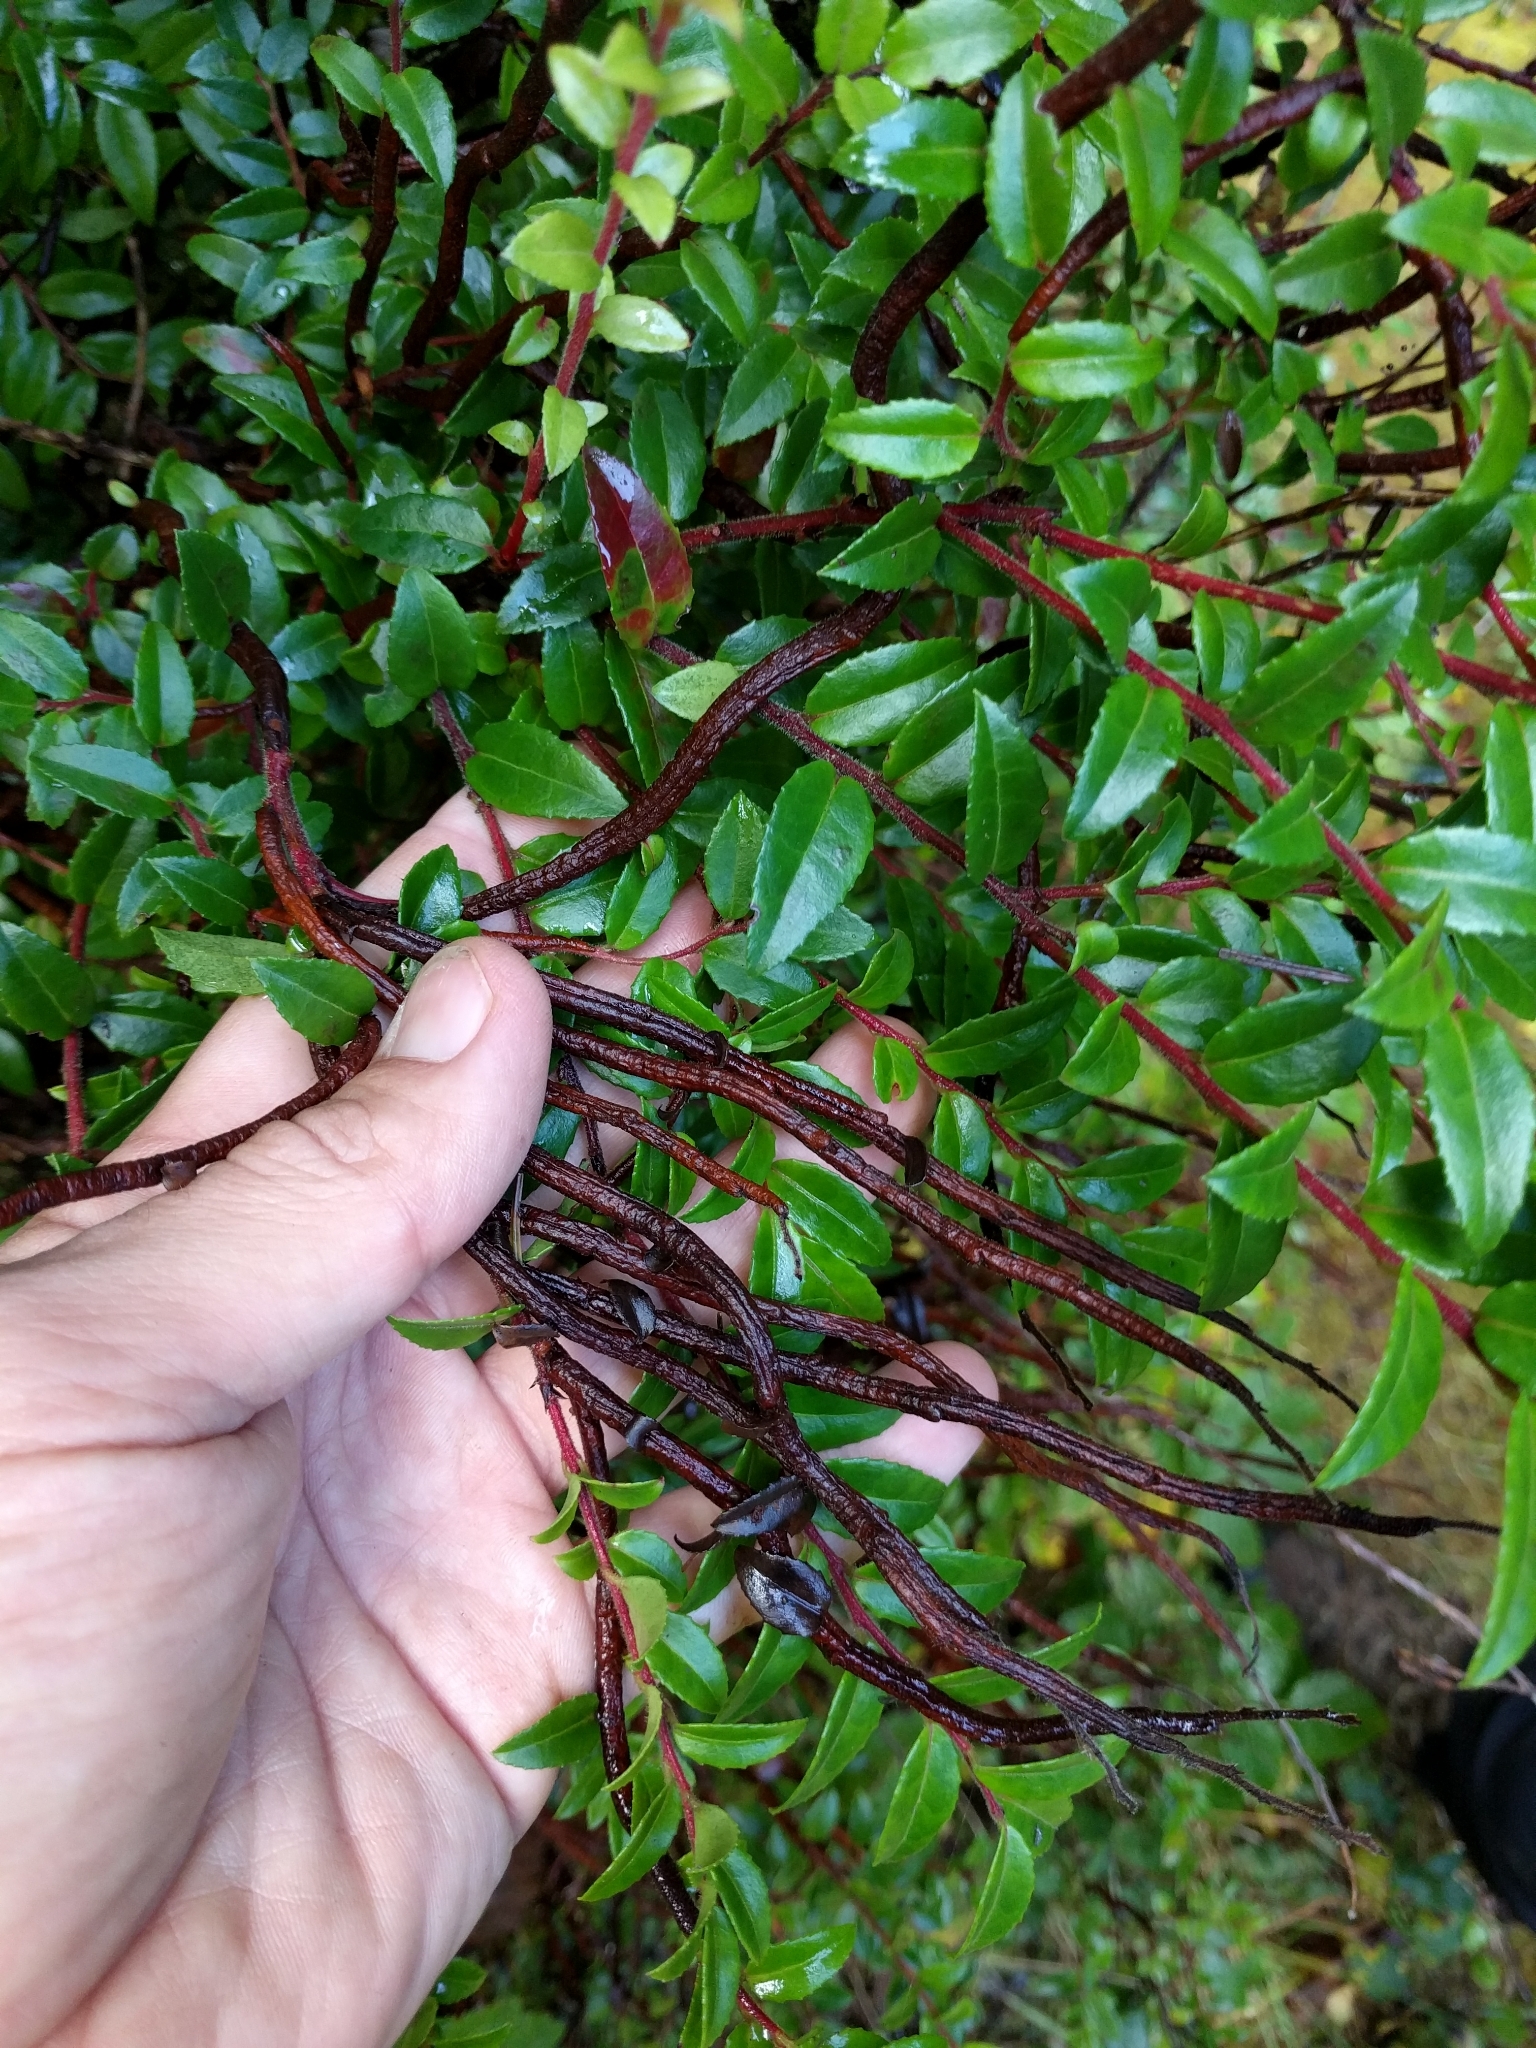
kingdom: Fungi
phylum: Basidiomycota
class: Pucciniomycetes
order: Pucciniales
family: Pucciniastraceae
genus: Calyptospora
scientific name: Calyptospora
